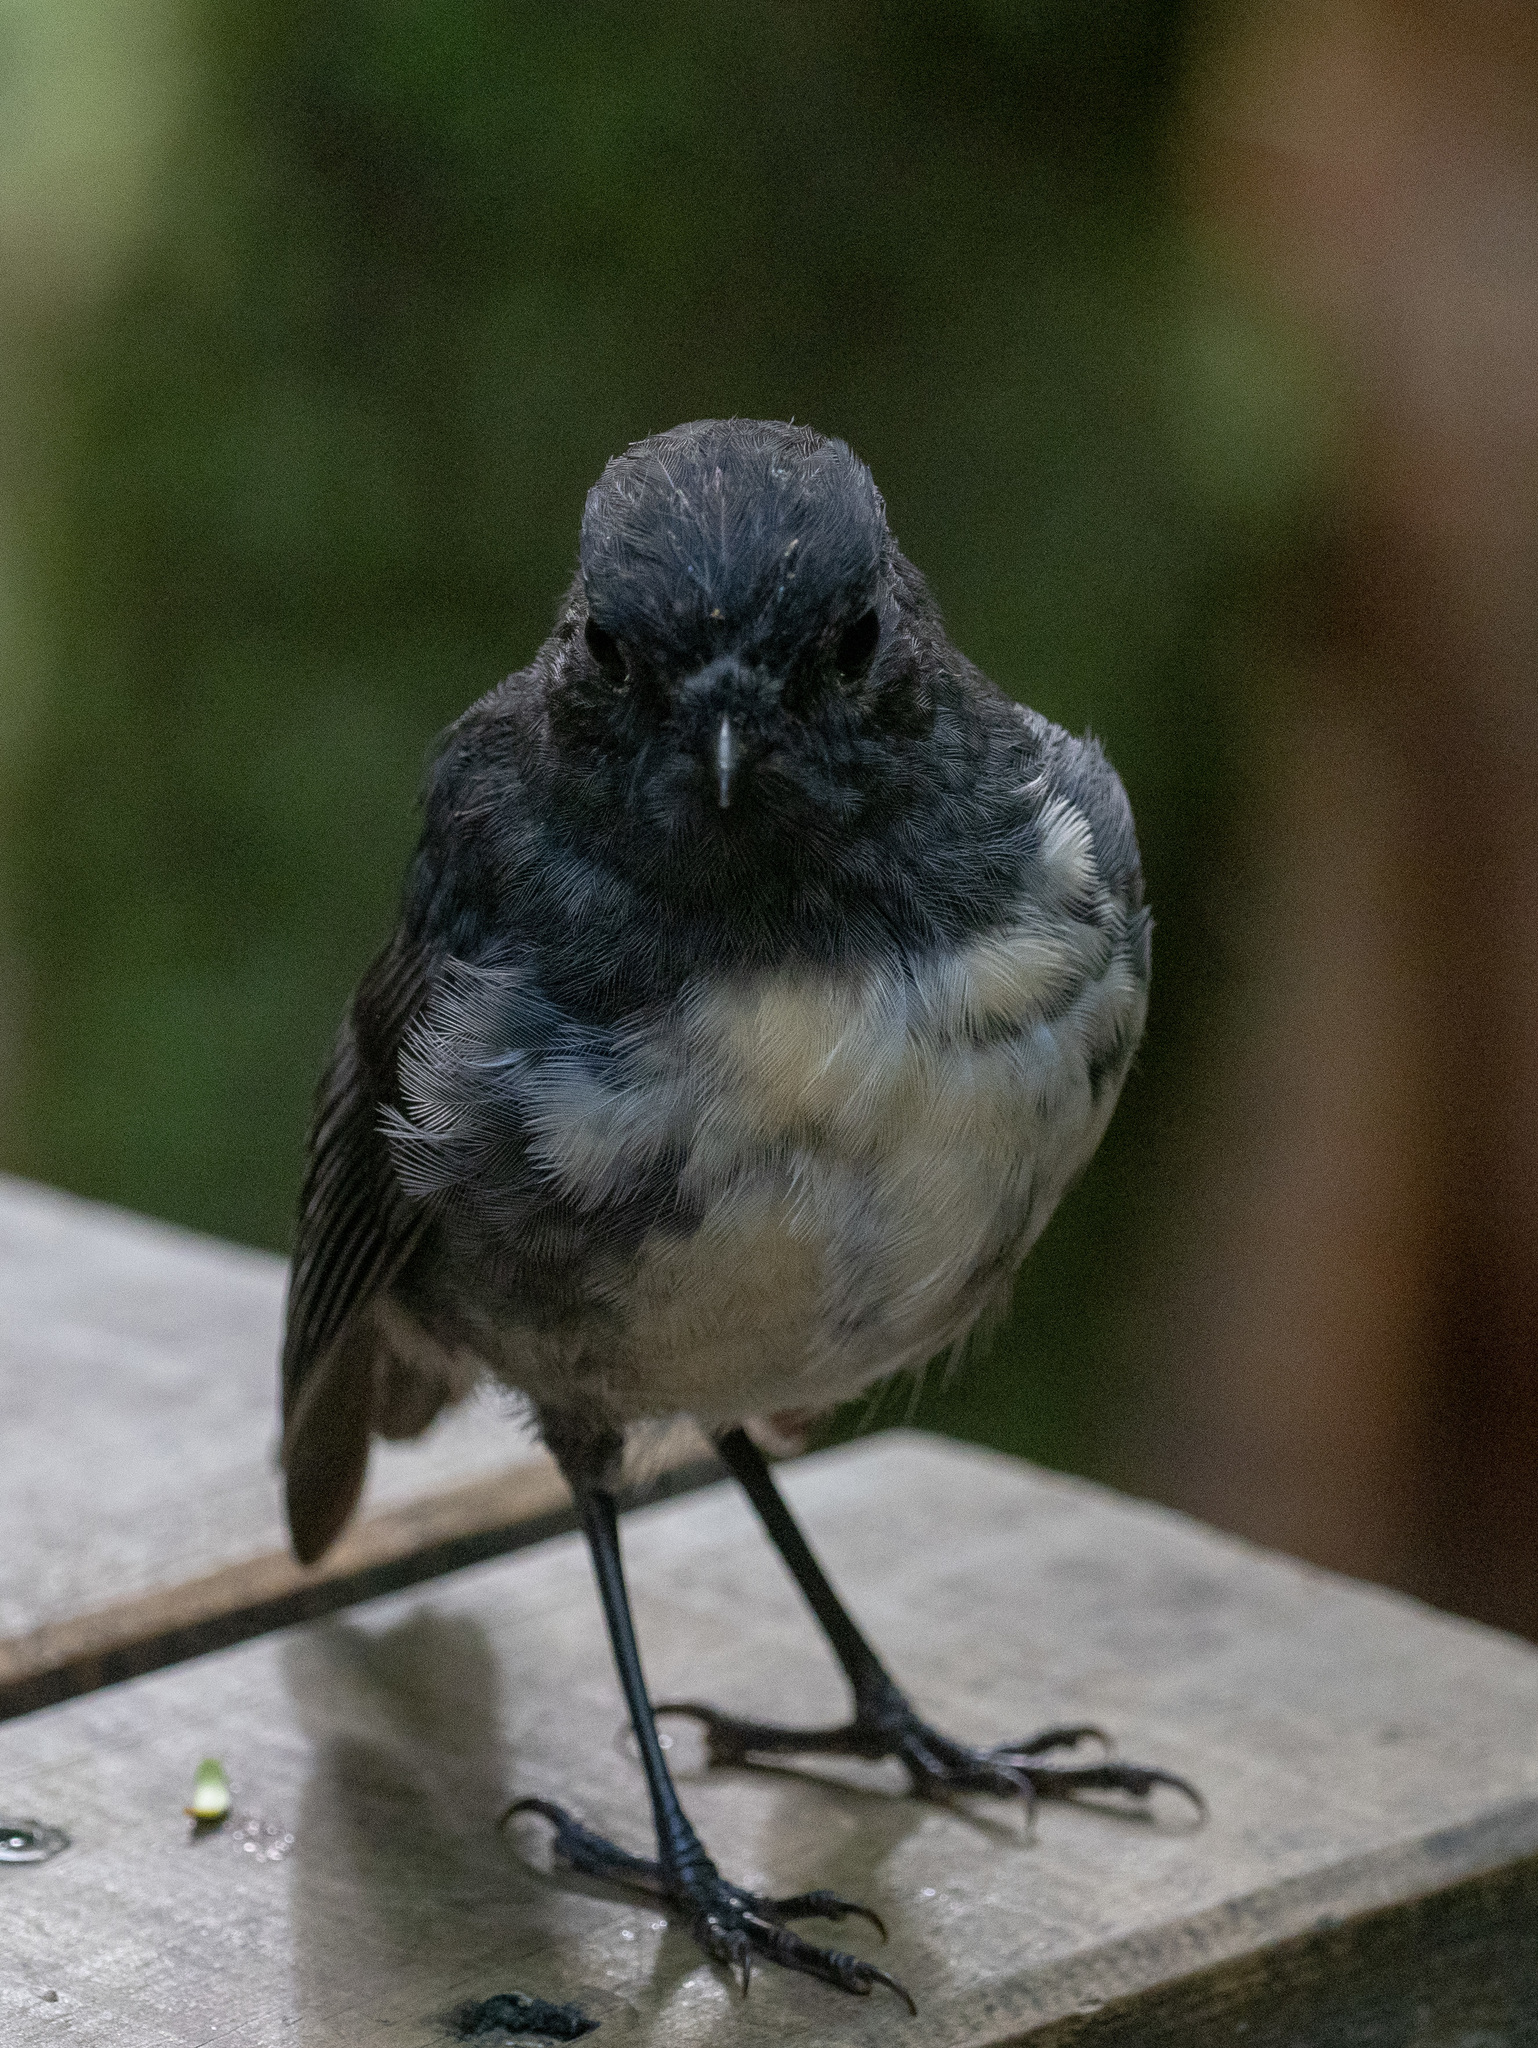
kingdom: Animalia
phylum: Chordata
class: Aves
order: Passeriformes
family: Petroicidae
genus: Petroica
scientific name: Petroica australis
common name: New zealand robin
